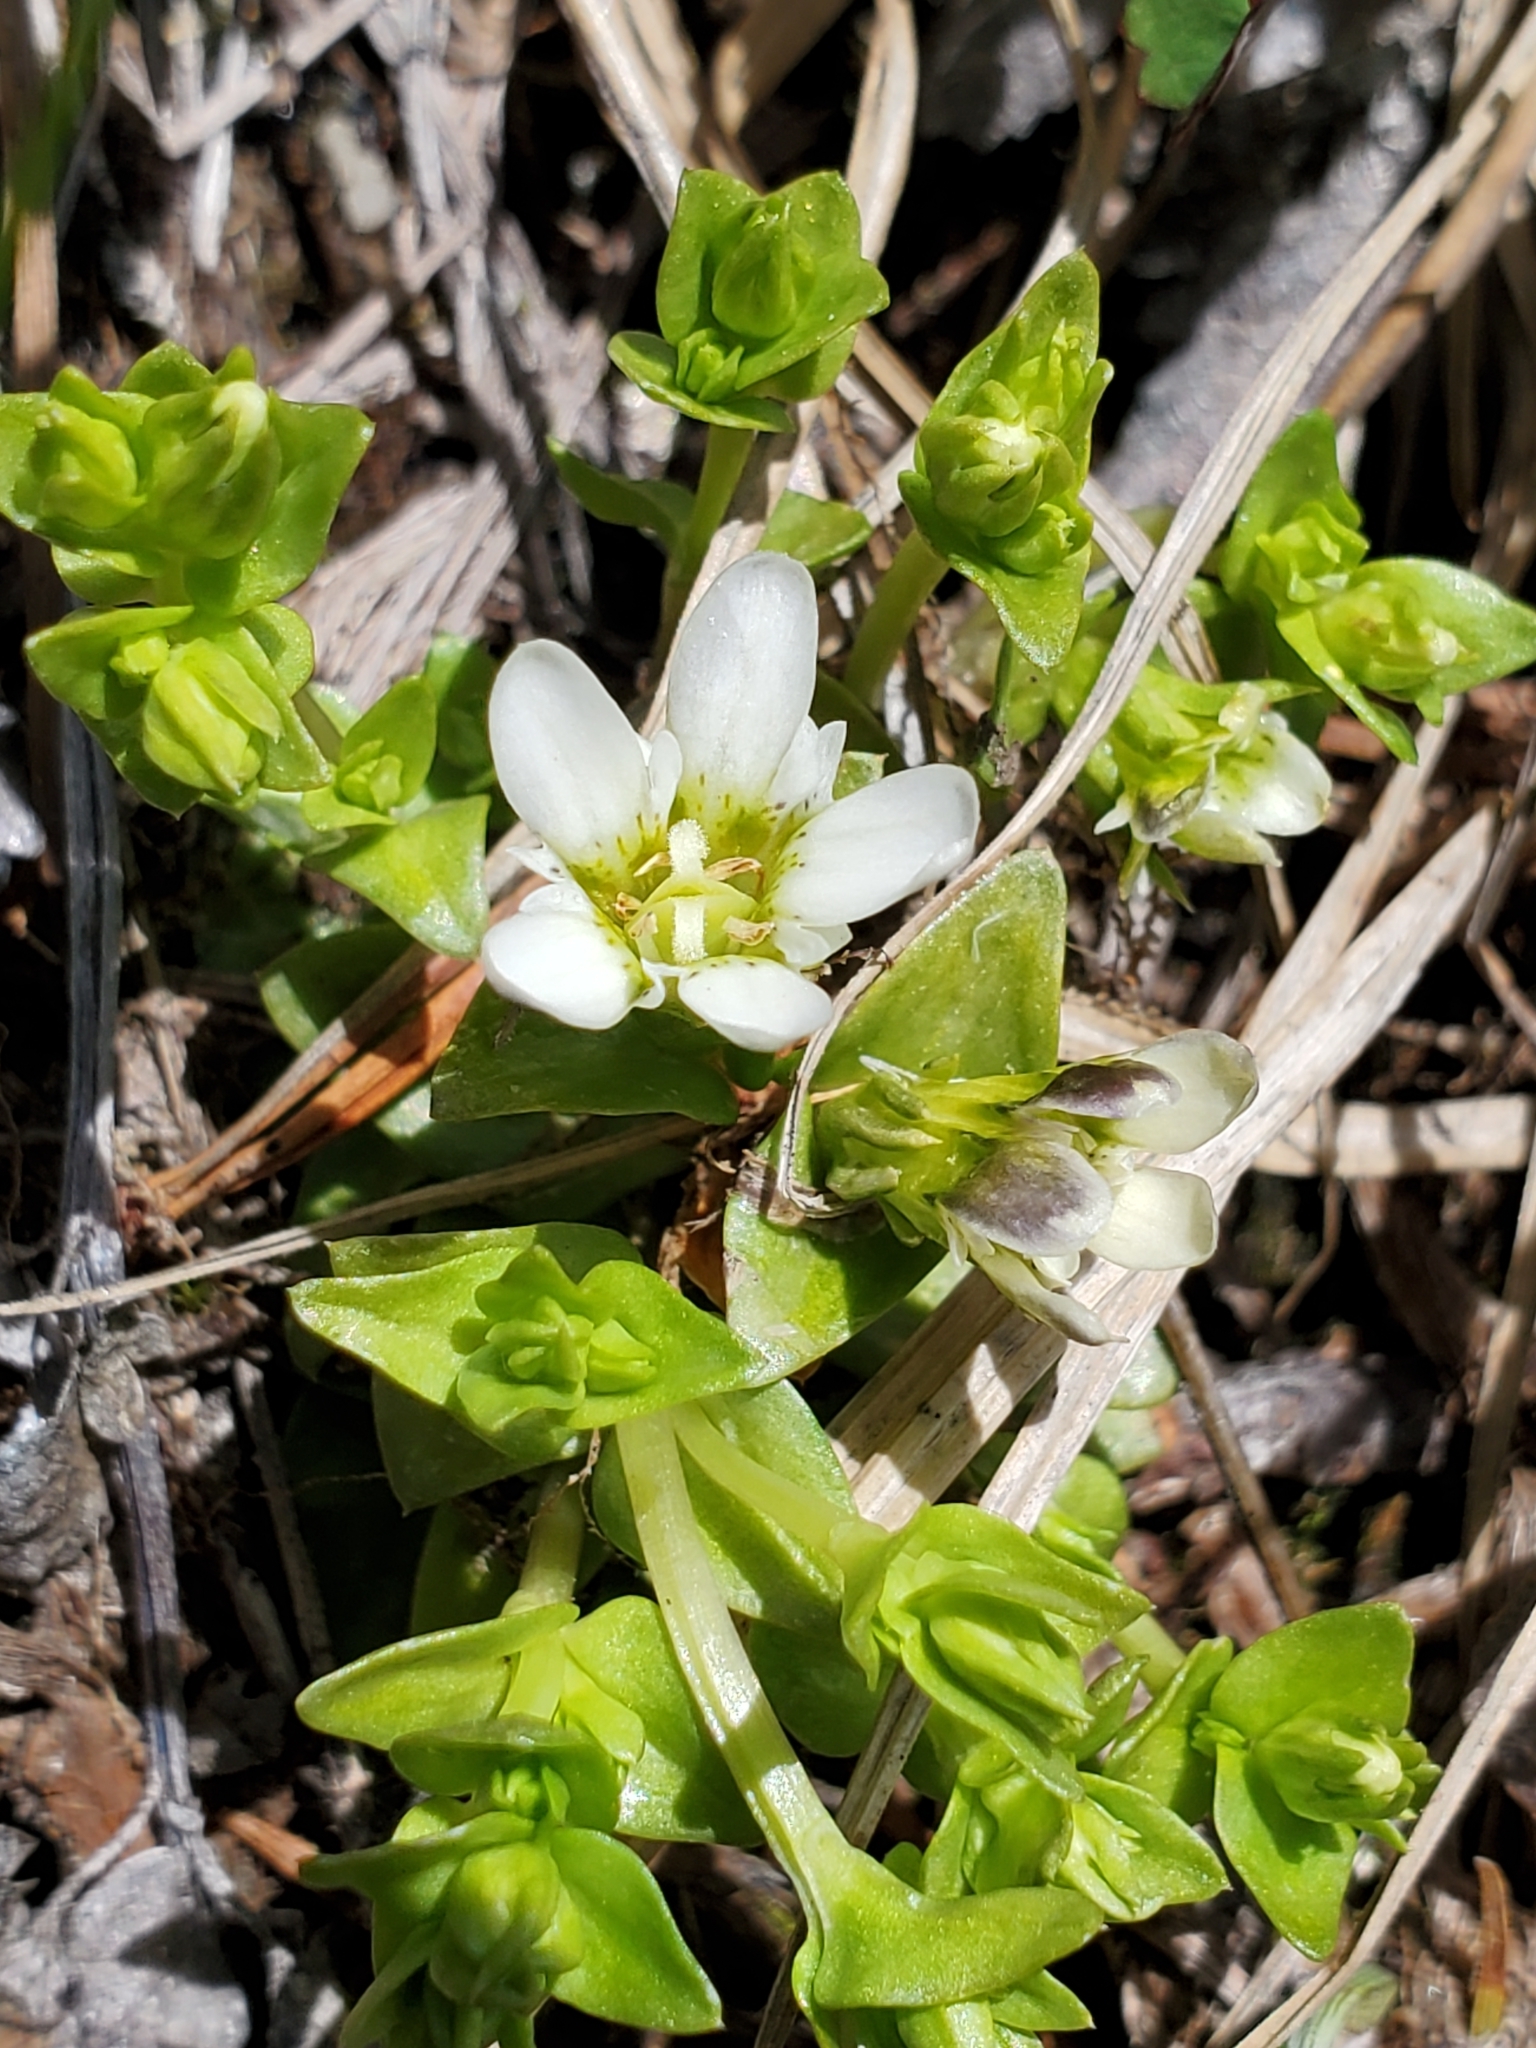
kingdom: Plantae
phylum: Tracheophyta
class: Magnoliopsida
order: Gentianales
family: Gentianaceae
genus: Gentiana
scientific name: Gentiana douglasiana
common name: Swamp gentian
